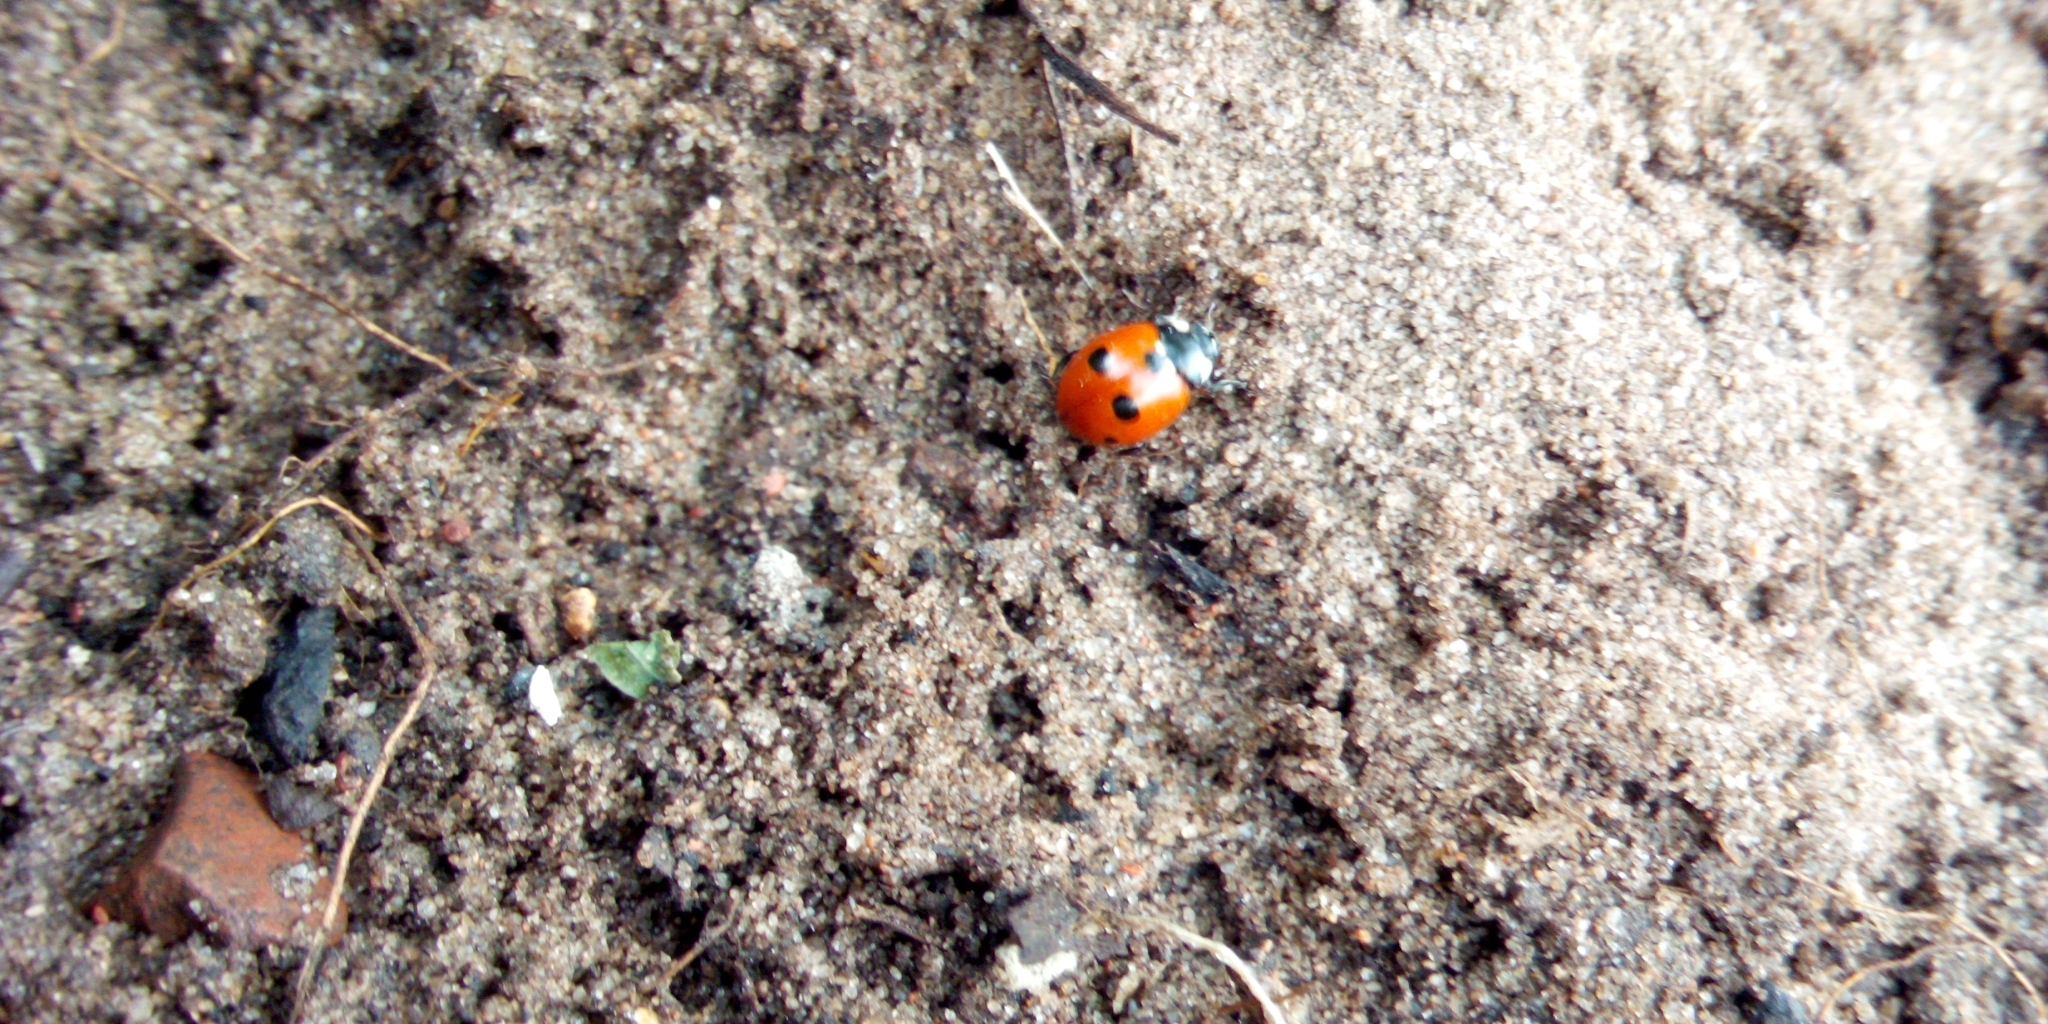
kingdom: Animalia
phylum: Arthropoda
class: Insecta
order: Coleoptera
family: Coccinellidae
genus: Coccinella
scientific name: Coccinella quinquepunctata
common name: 5-spot ladybird
